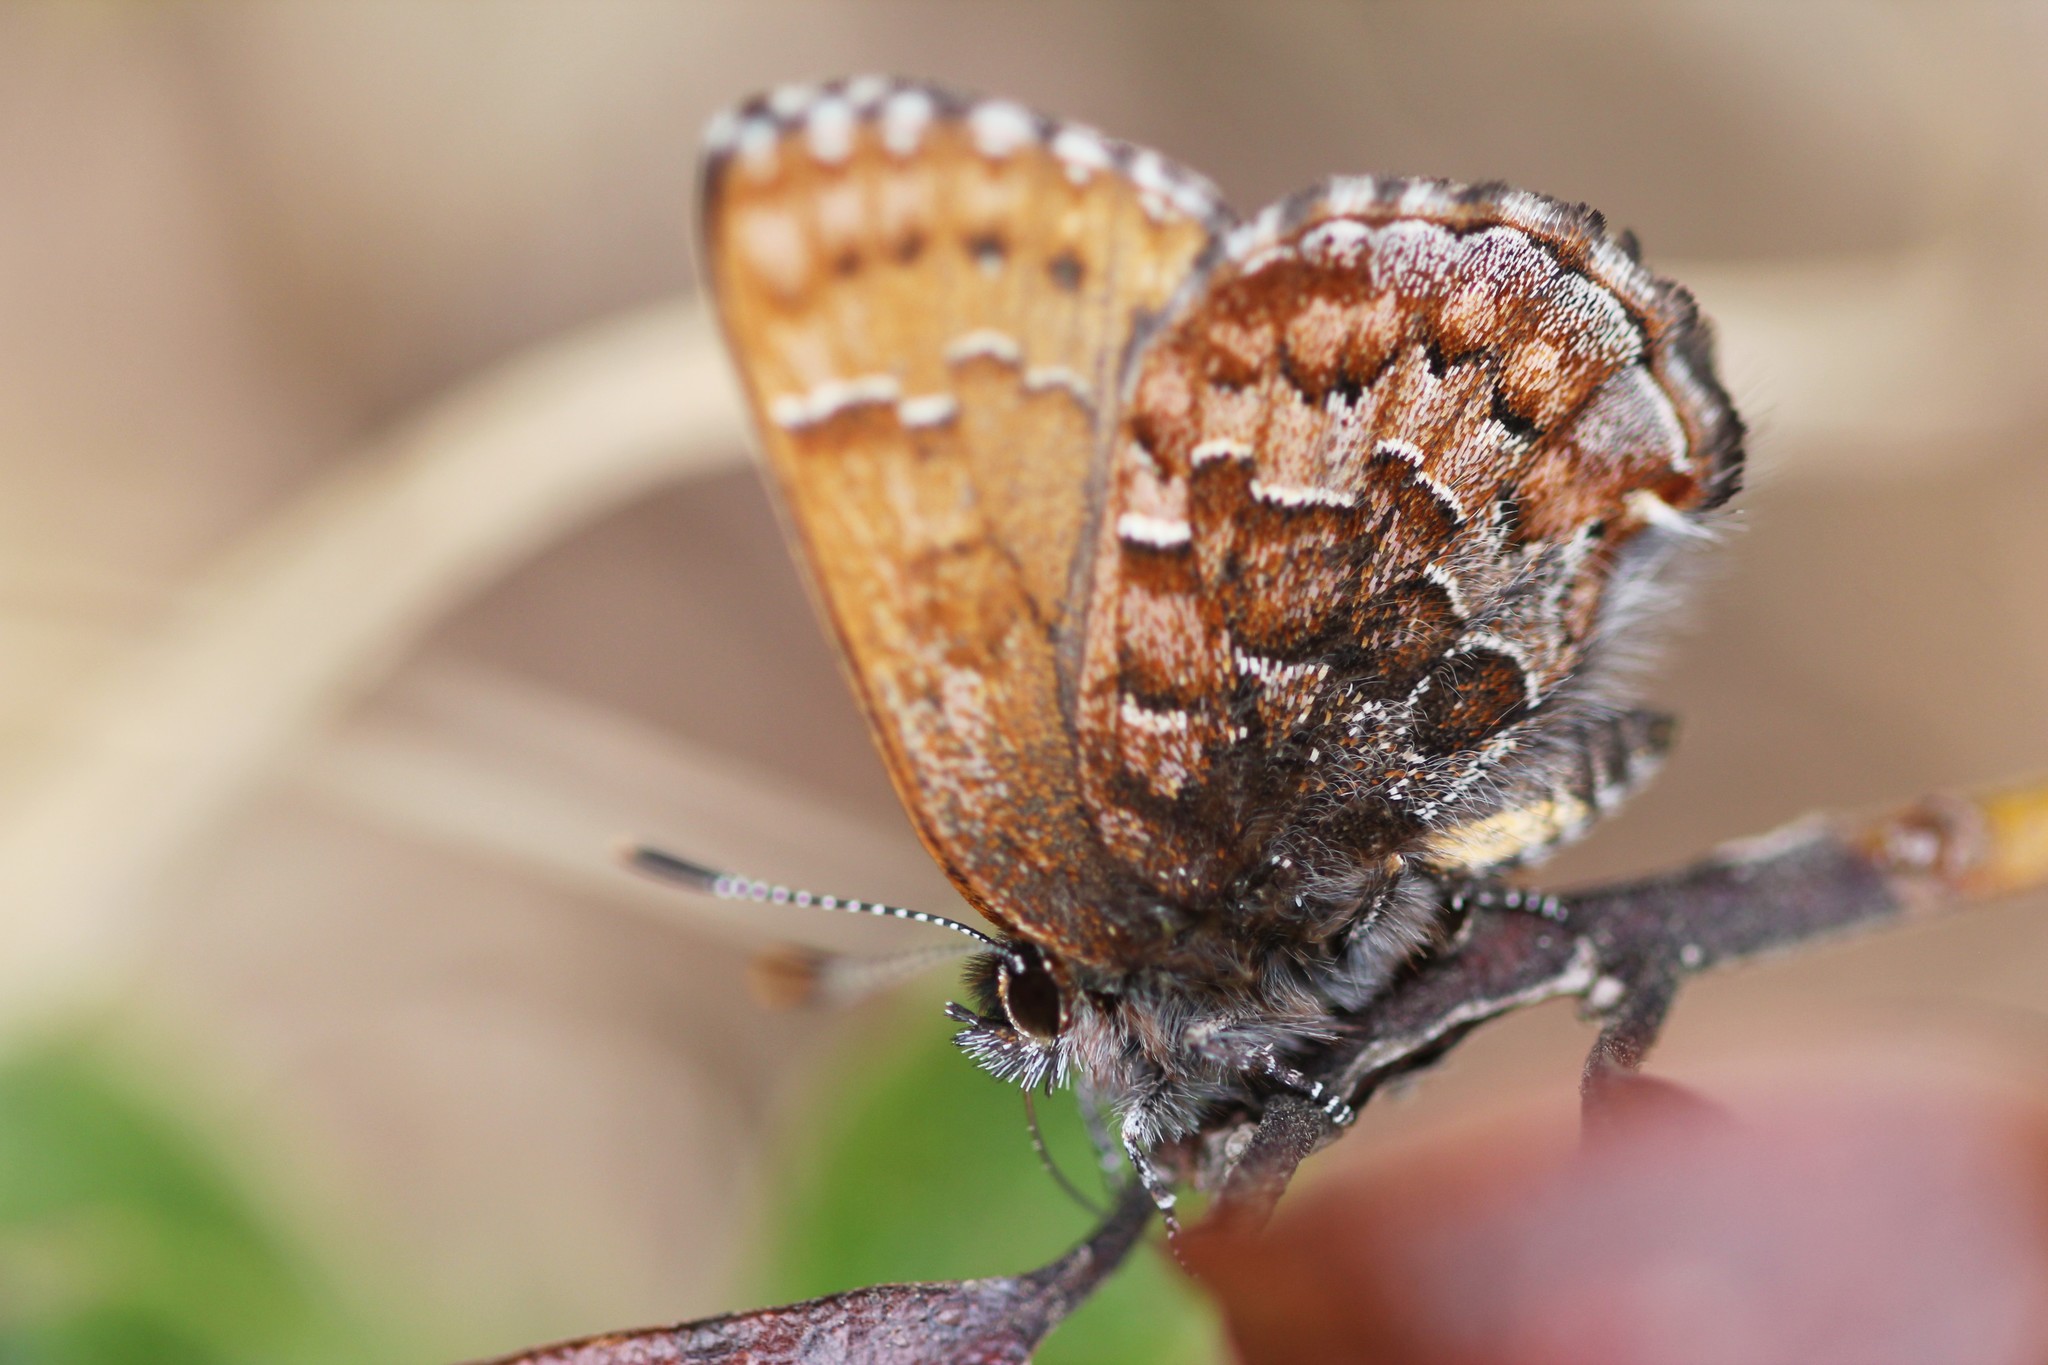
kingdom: Animalia
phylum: Arthropoda
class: Insecta
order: Lepidoptera
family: Lycaenidae
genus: Incisalia
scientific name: Incisalia niphon
